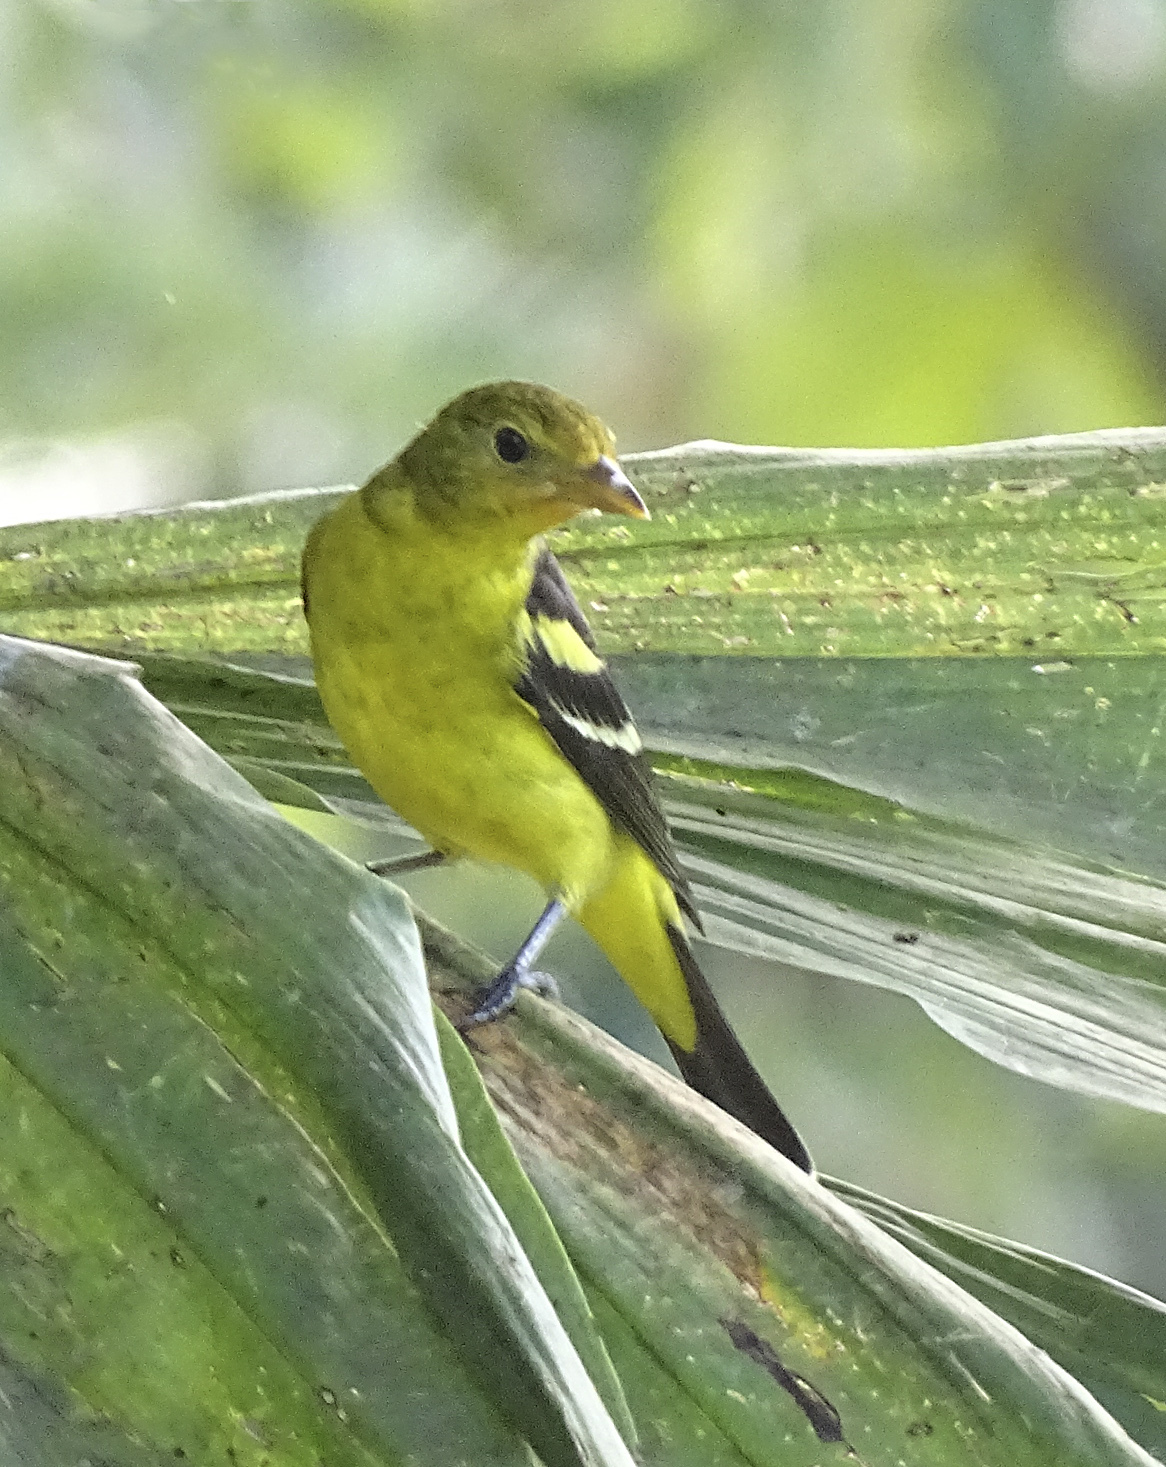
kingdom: Animalia
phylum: Chordata
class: Aves
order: Passeriformes
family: Cardinalidae
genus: Piranga
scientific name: Piranga ludoviciana
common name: Western tanager
